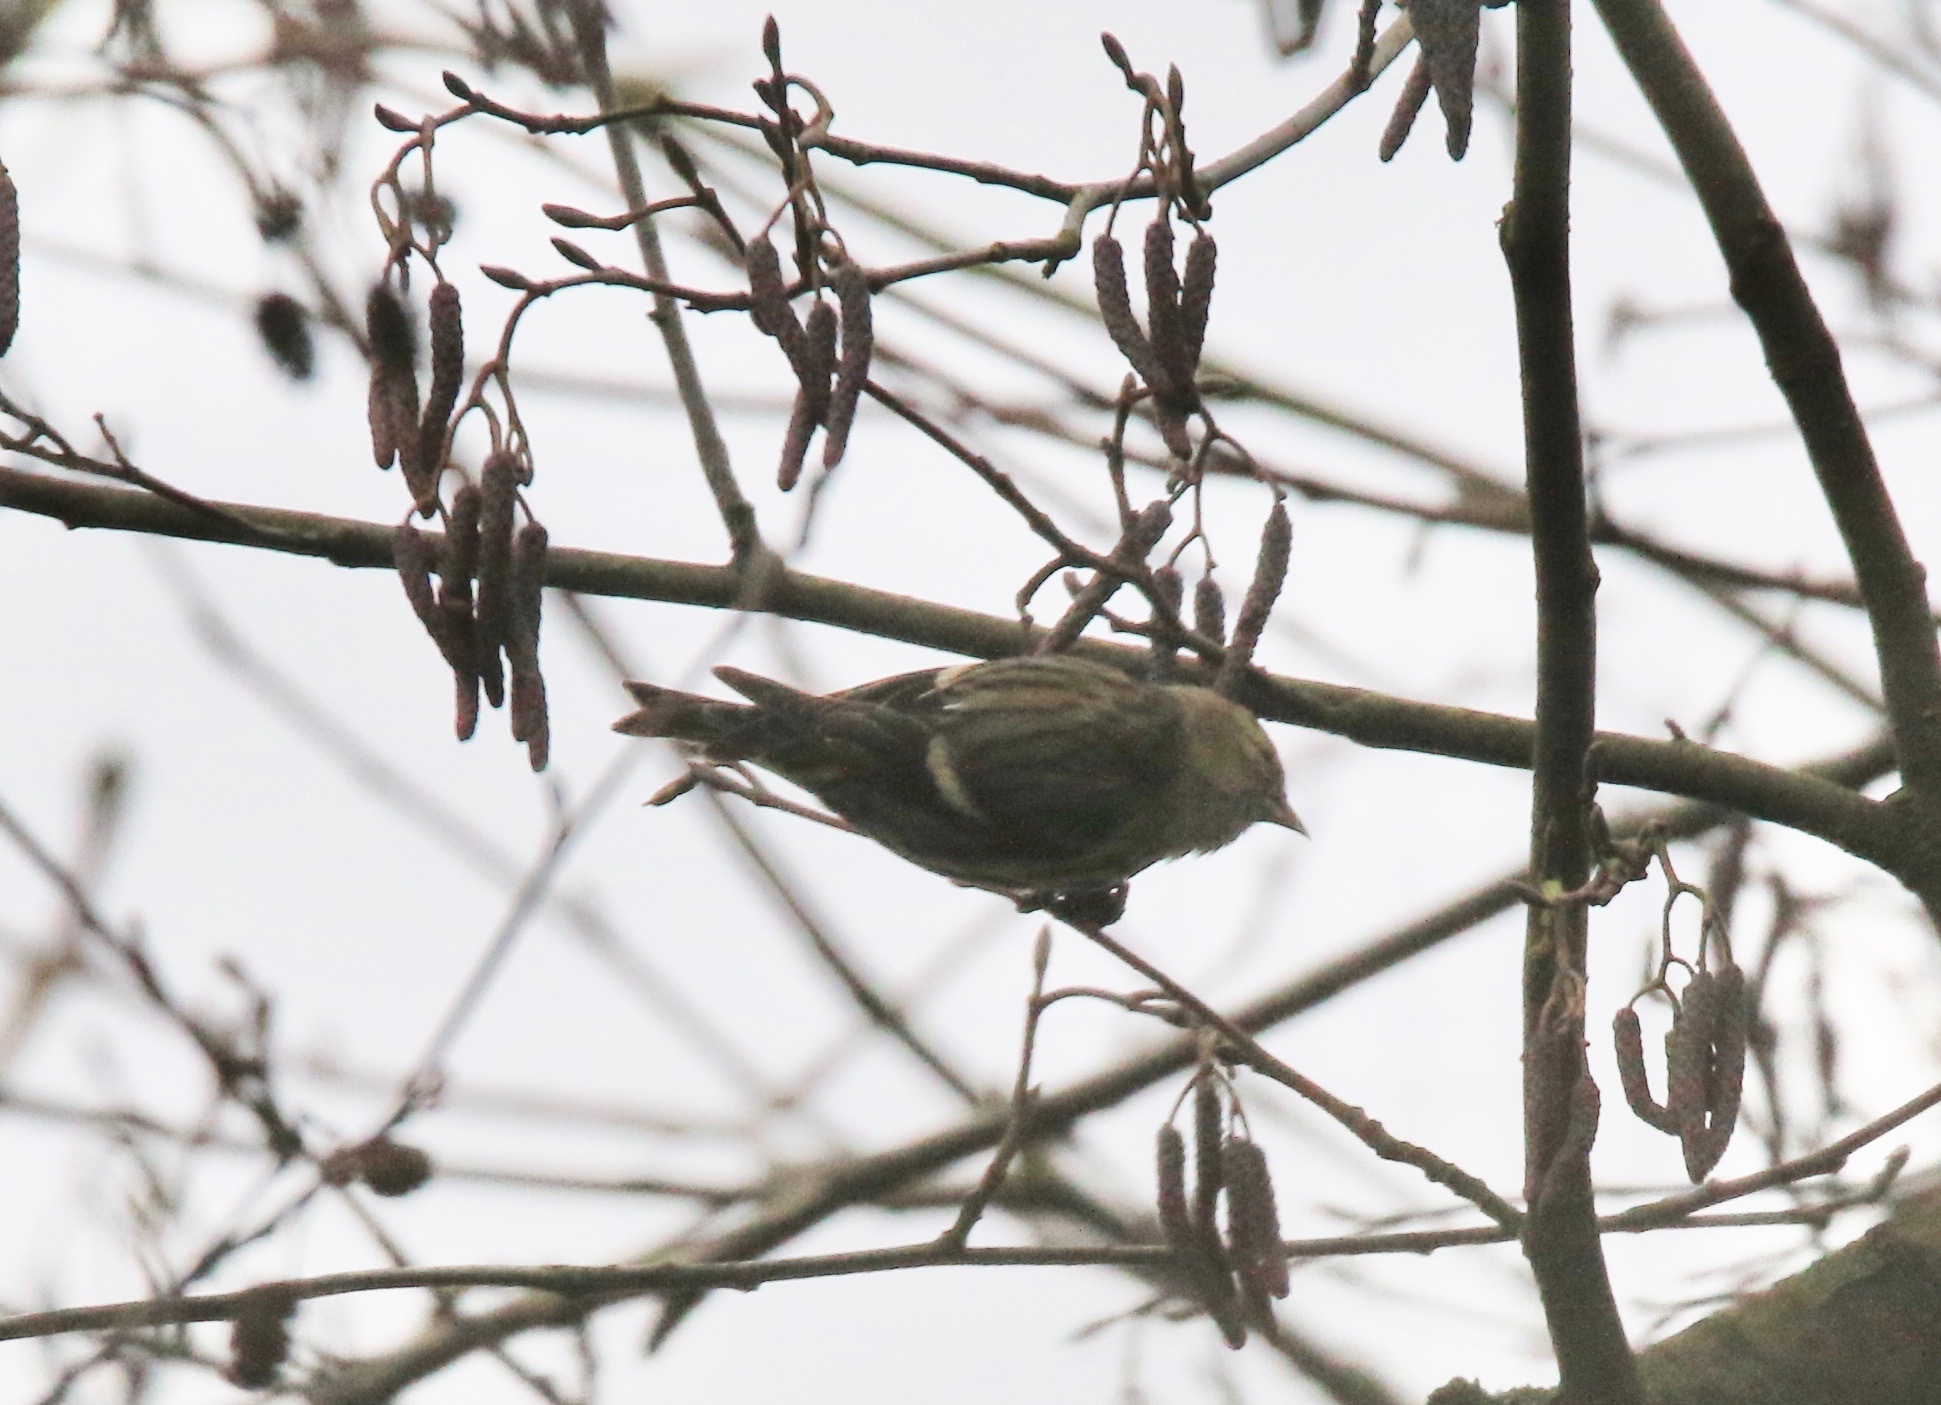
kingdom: Animalia
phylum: Chordata
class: Aves
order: Passeriformes
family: Fringillidae
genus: Spinus
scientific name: Spinus spinus
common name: Eurasian siskin
